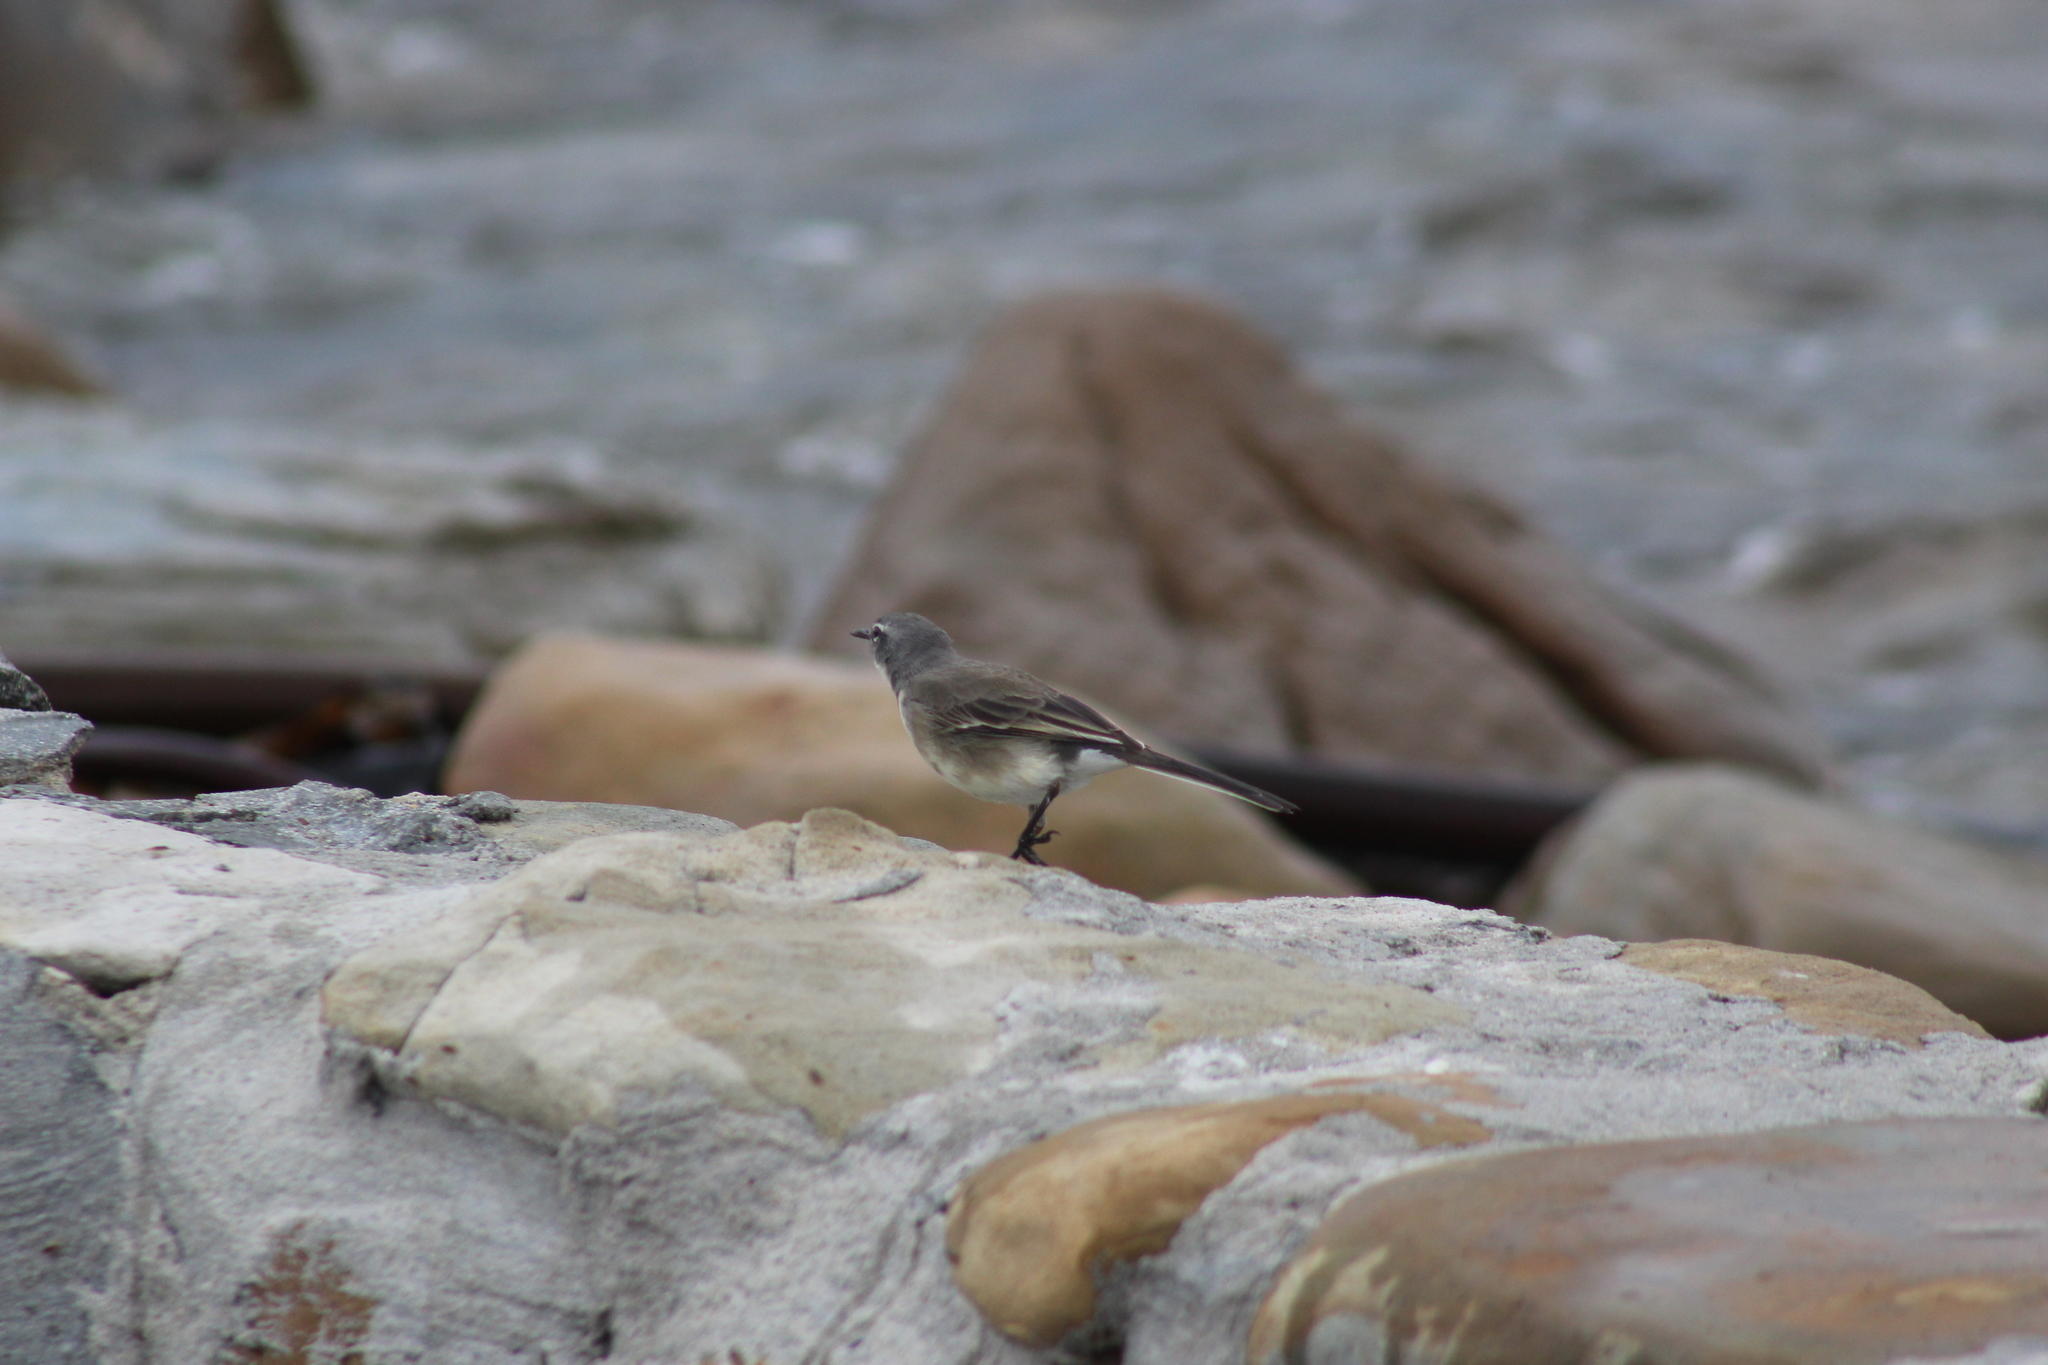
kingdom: Animalia
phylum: Chordata
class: Aves
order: Passeriformes
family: Motacillidae
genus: Motacilla
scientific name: Motacilla capensis
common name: Cape wagtail
